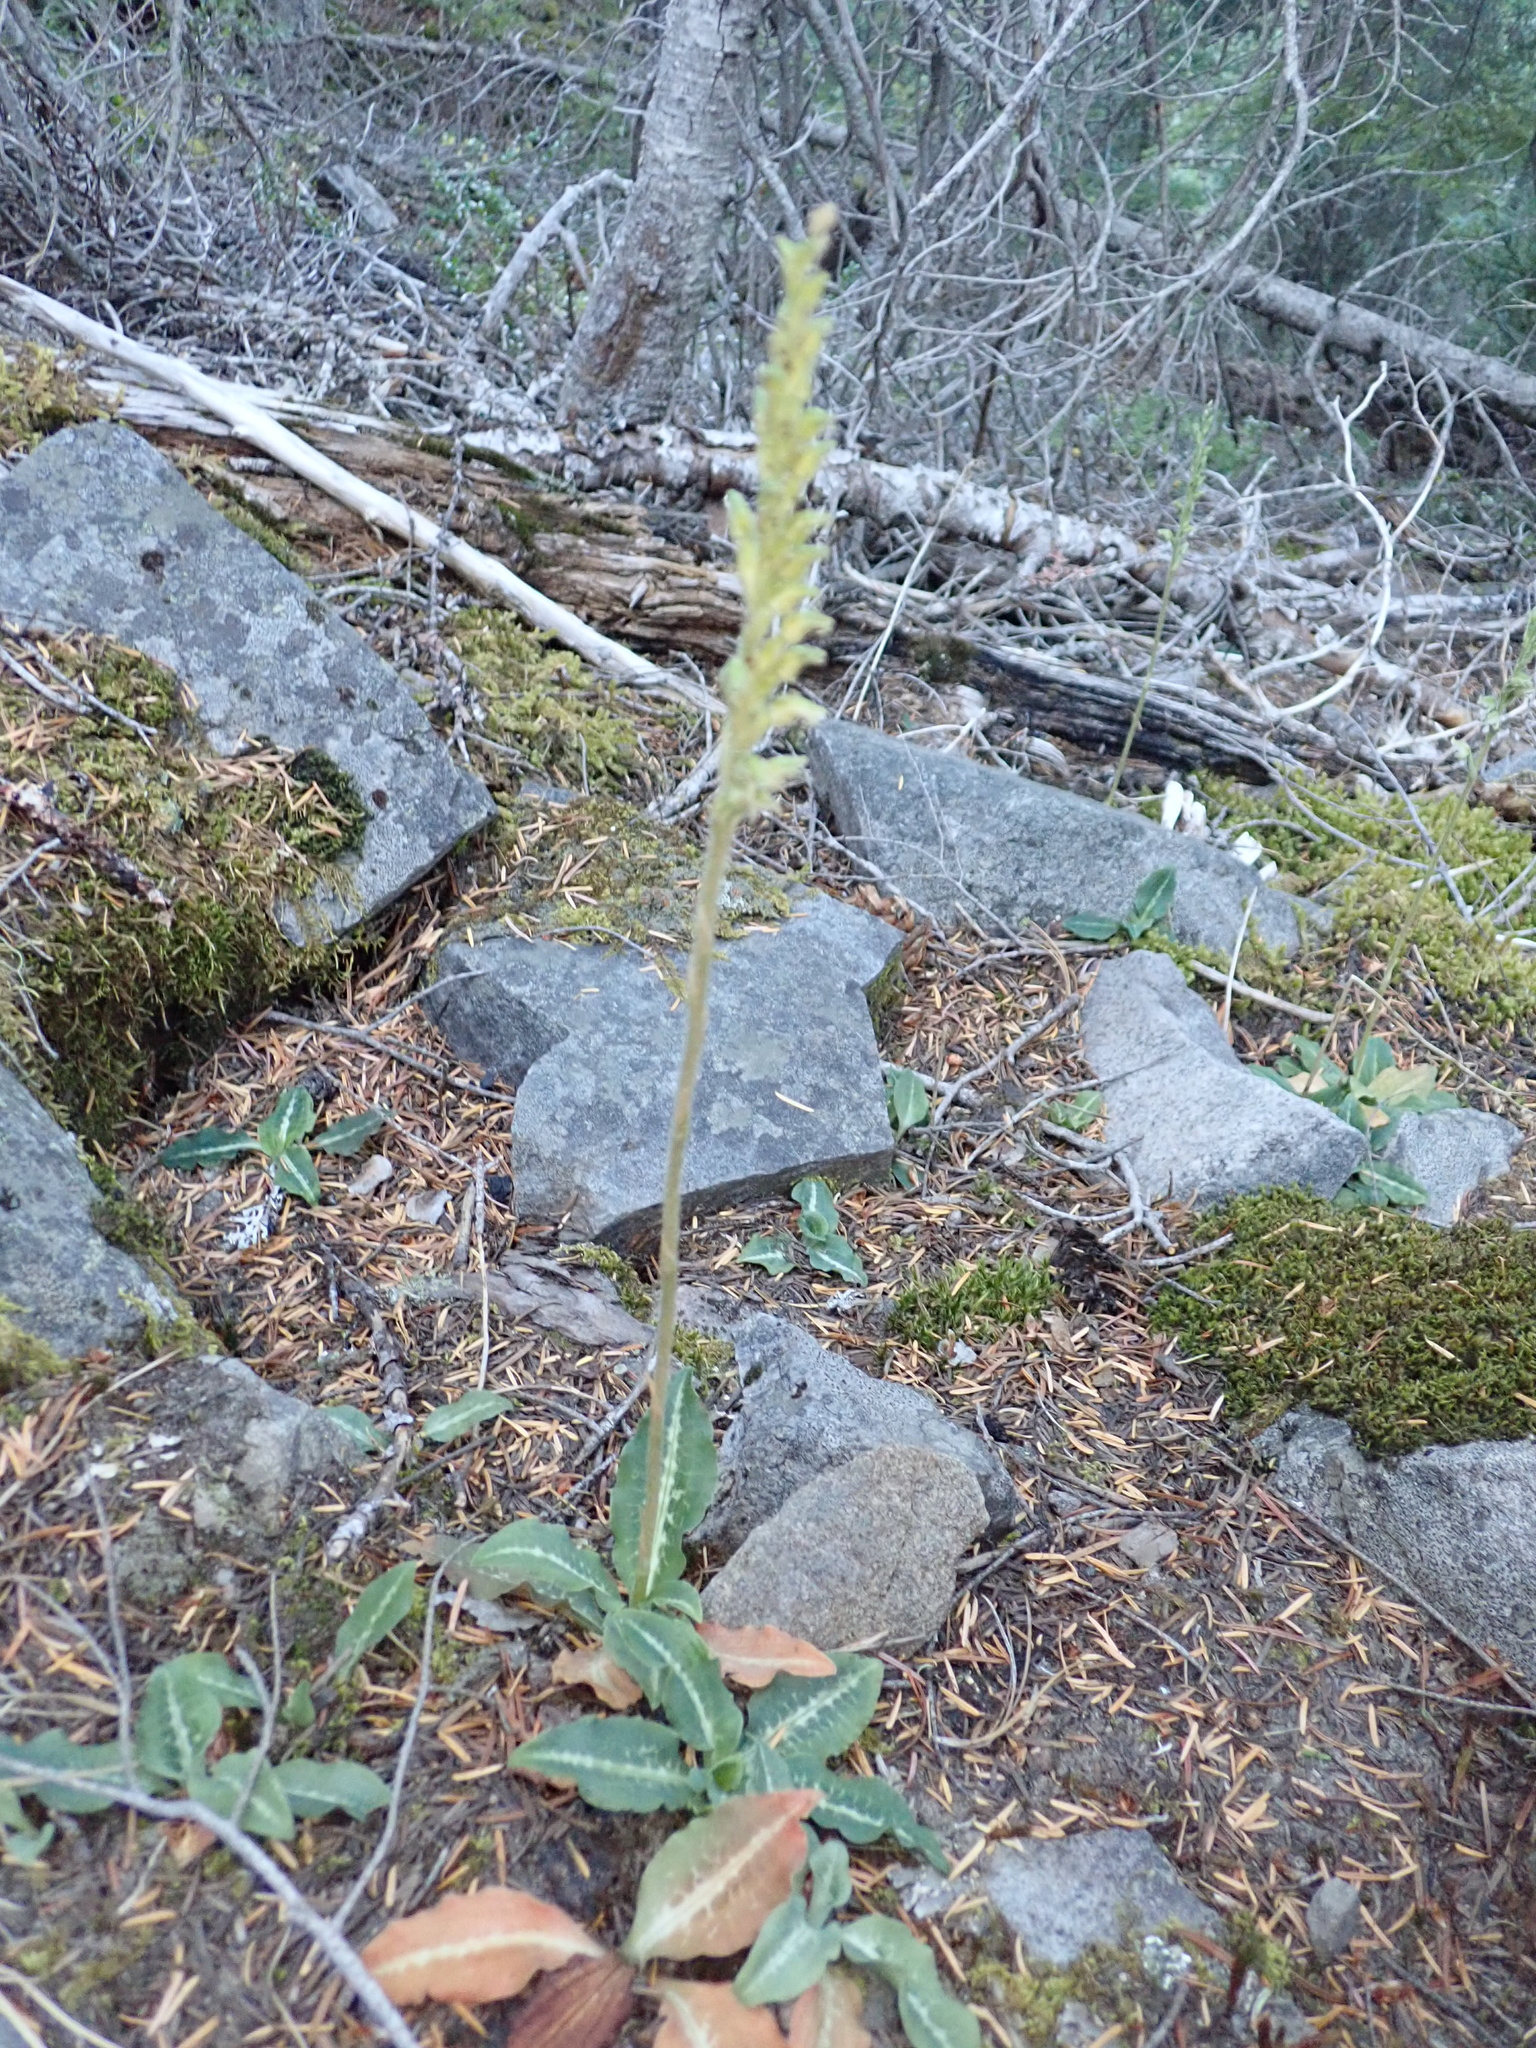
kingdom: Plantae
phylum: Tracheophyta
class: Liliopsida
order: Asparagales
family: Orchidaceae
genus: Goodyera
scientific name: Goodyera oblongifolia
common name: Giant rattlesnake-plantain
